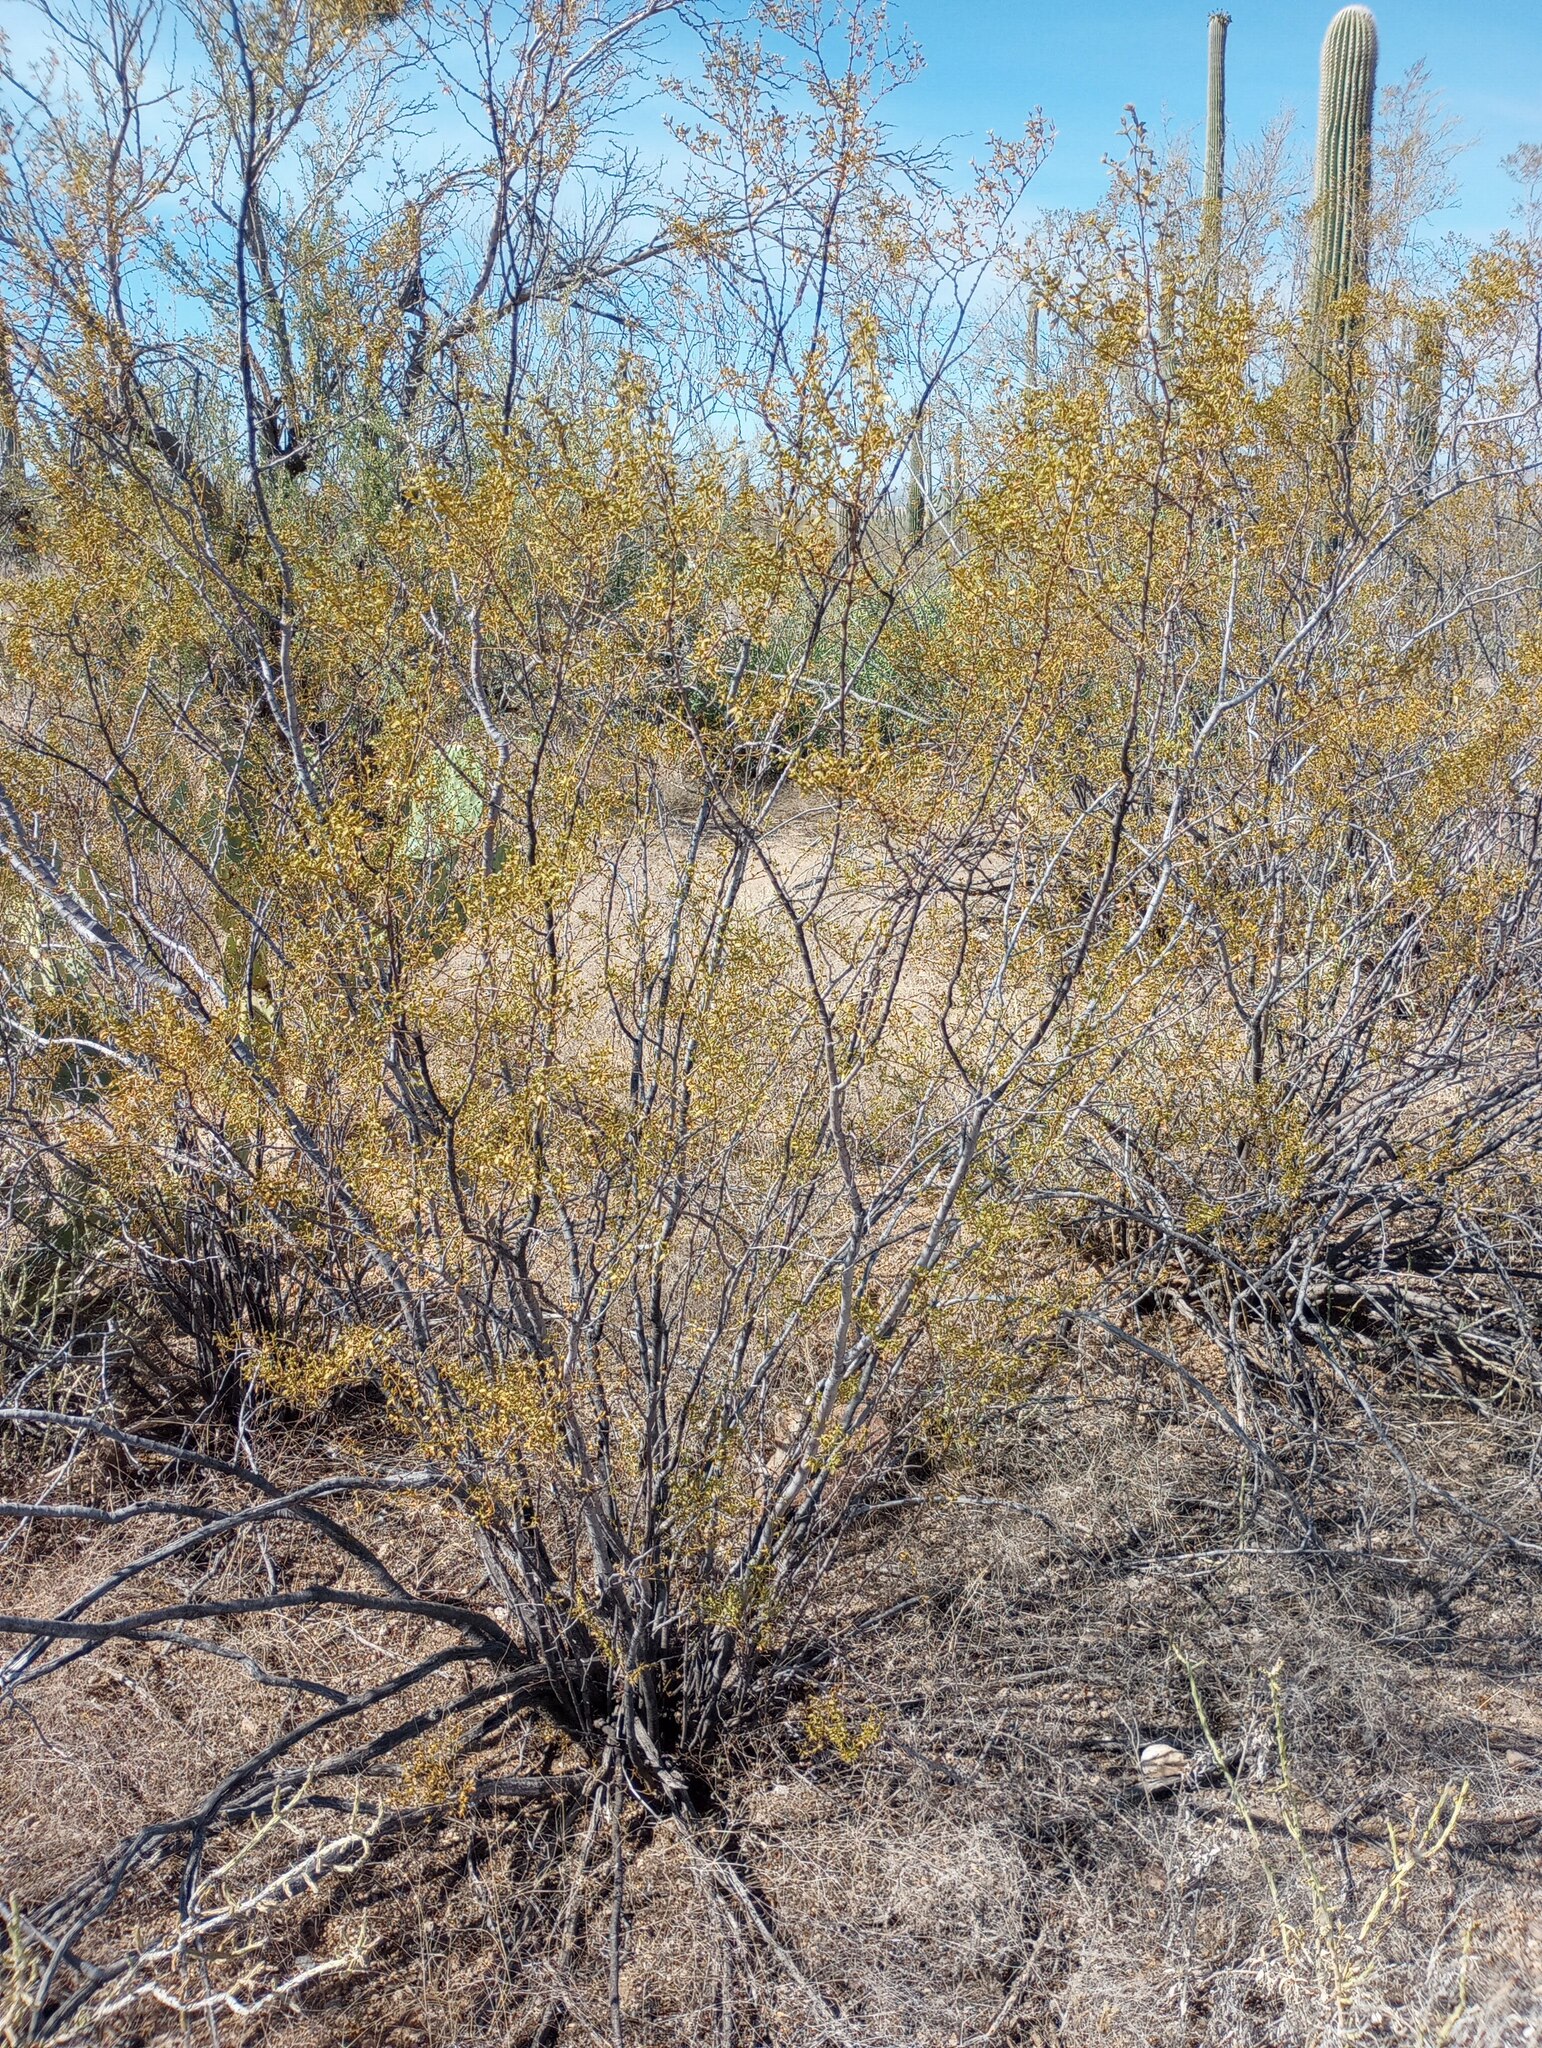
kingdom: Plantae
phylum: Tracheophyta
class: Magnoliopsida
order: Zygophyllales
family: Zygophyllaceae
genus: Larrea
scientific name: Larrea tridentata
